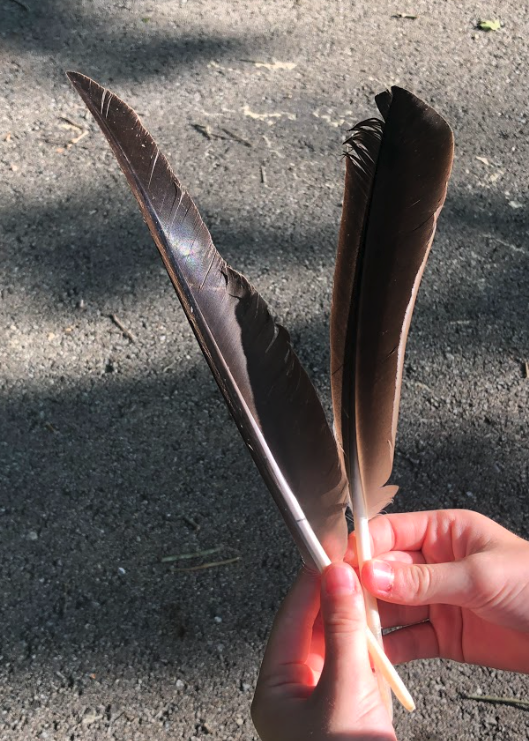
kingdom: Animalia
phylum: Chordata
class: Aves
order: Anseriformes
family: Anatidae
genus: Branta
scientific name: Branta canadensis
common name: Canada goose
